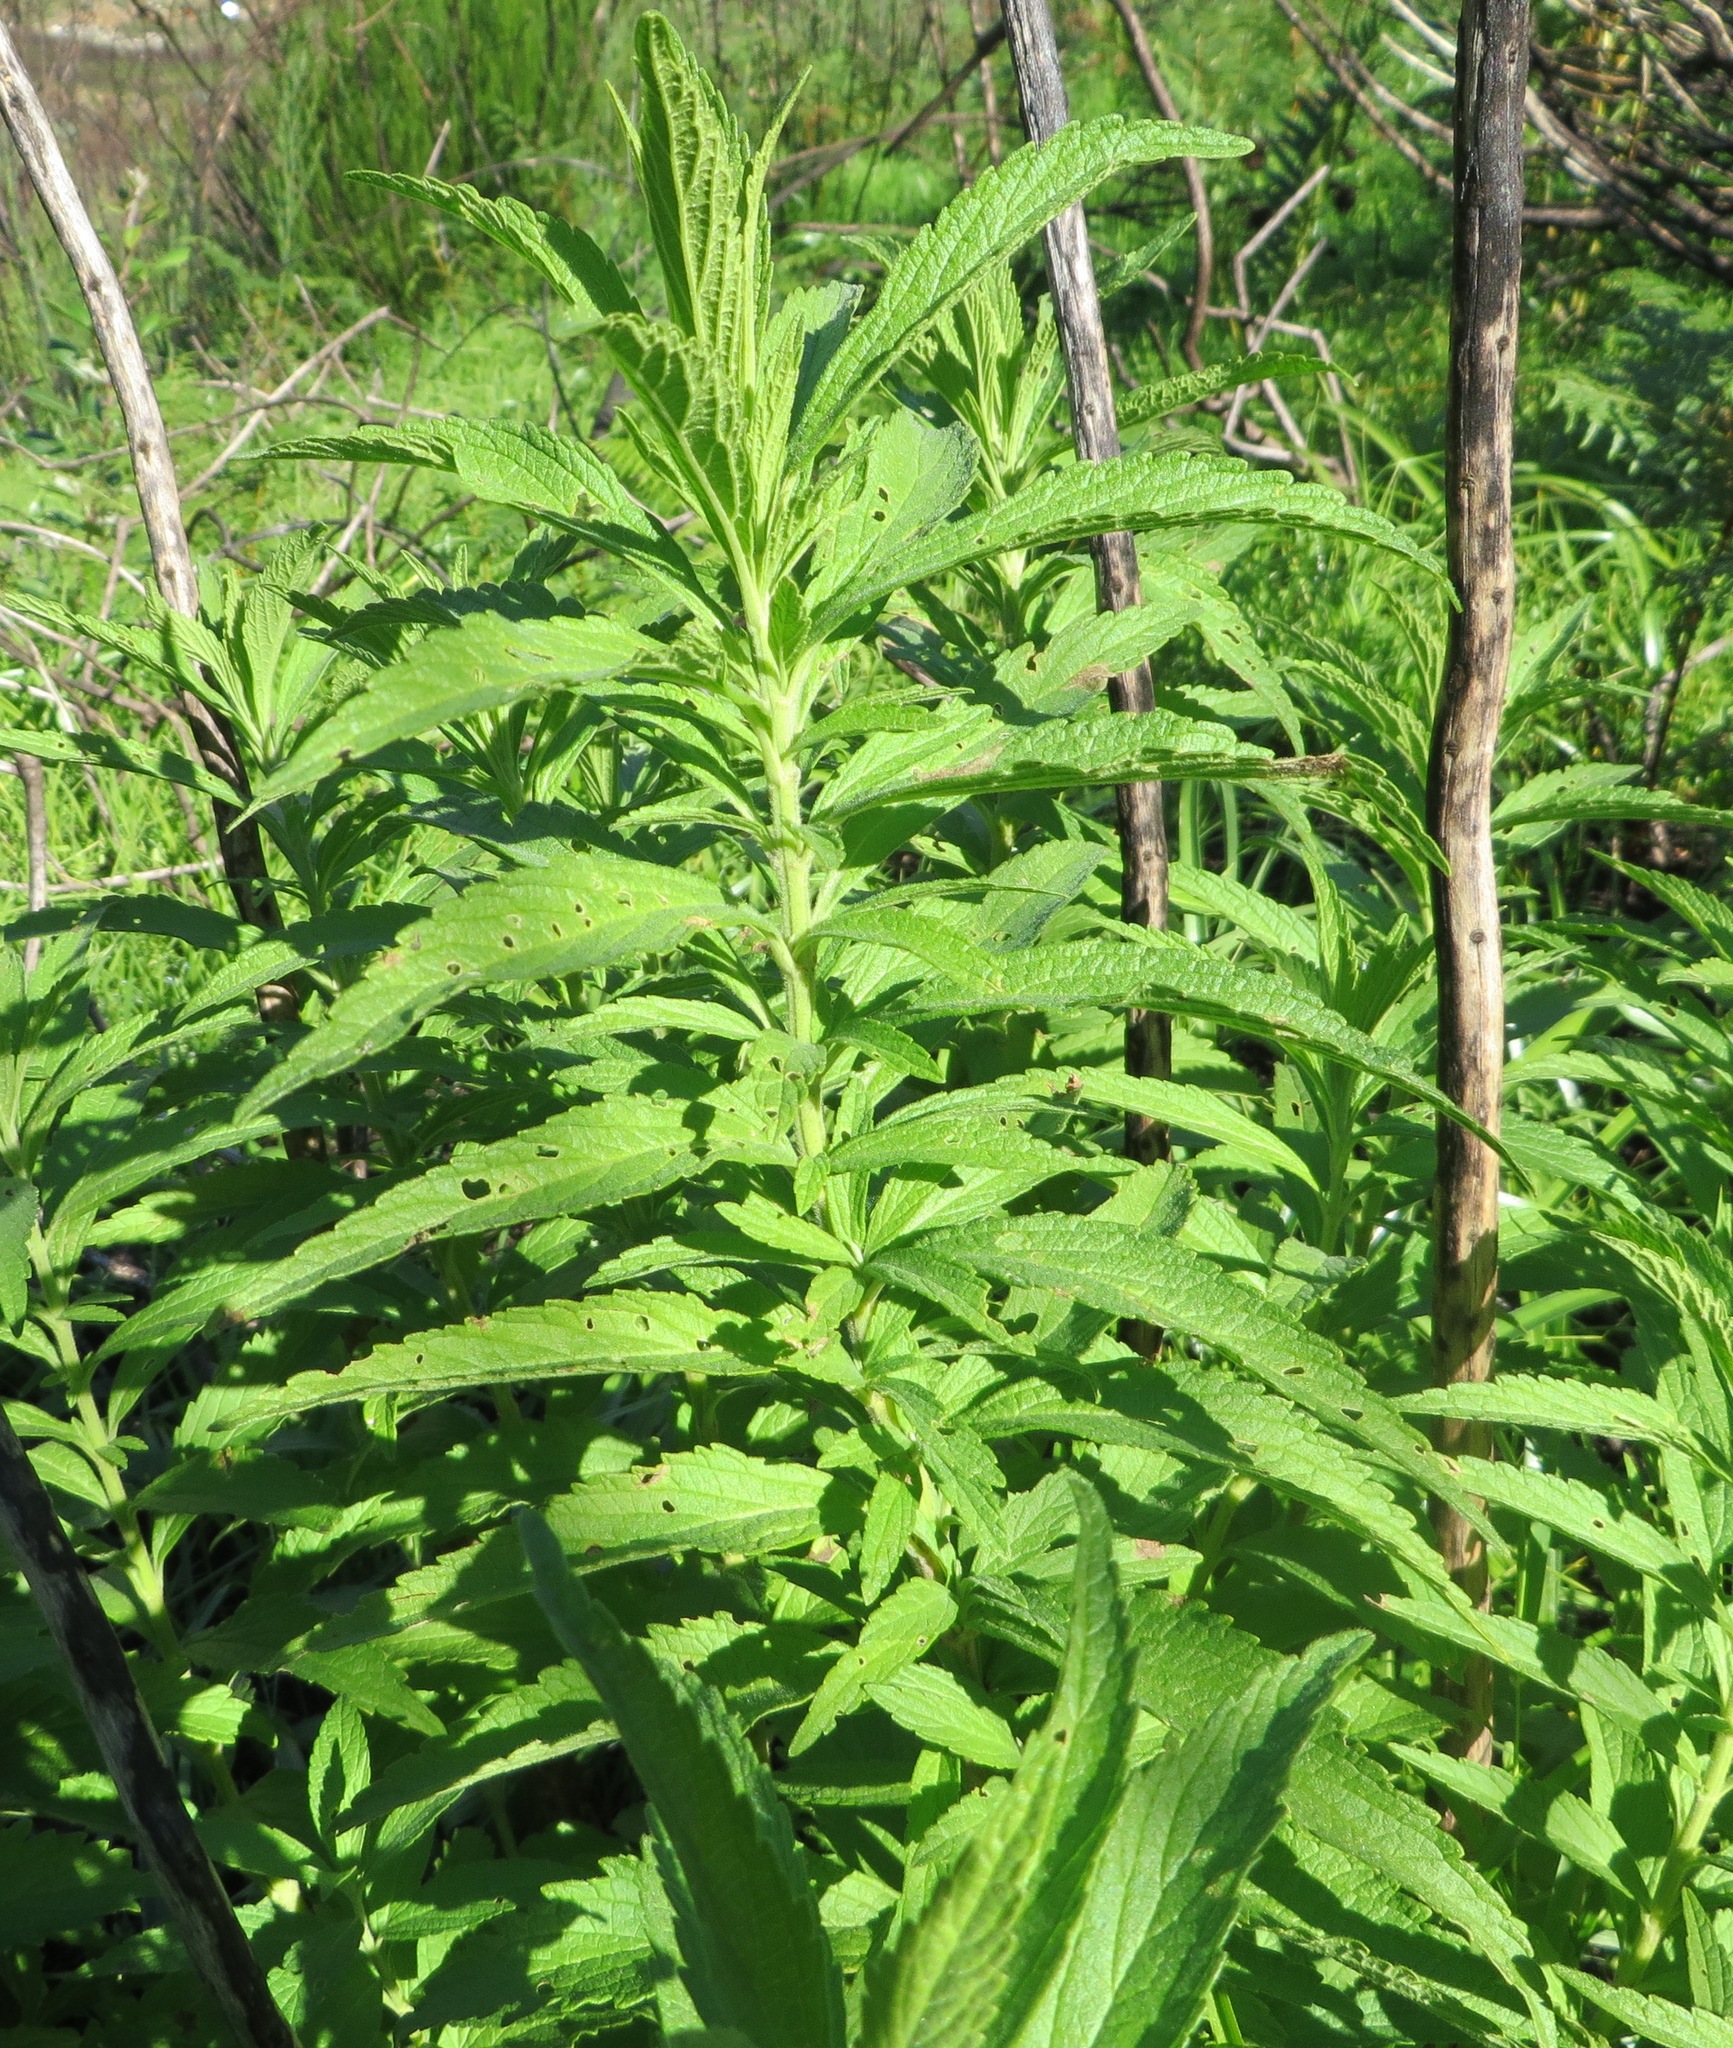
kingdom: Plantae
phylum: Tracheophyta
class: Magnoliopsida
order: Lamiales
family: Lamiaceae
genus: Leonotis
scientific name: Leonotis leonurus
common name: Lion's ear
